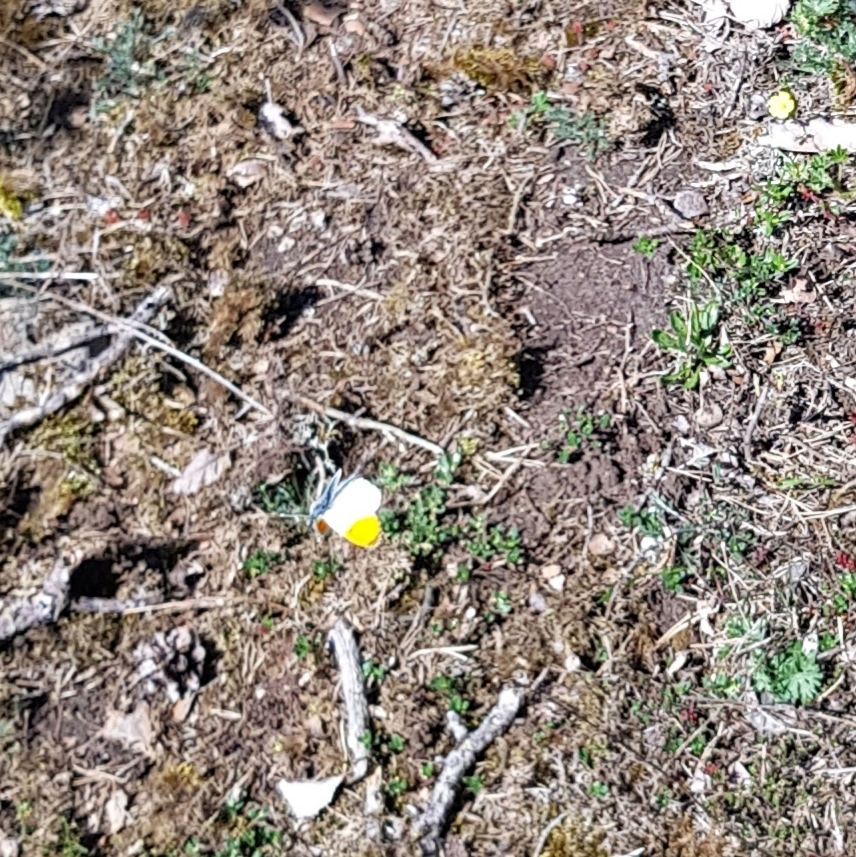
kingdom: Animalia
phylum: Arthropoda
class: Insecta
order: Lepidoptera
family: Pieridae
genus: Anthocharis
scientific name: Anthocharis cardamines
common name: Orange-tip
